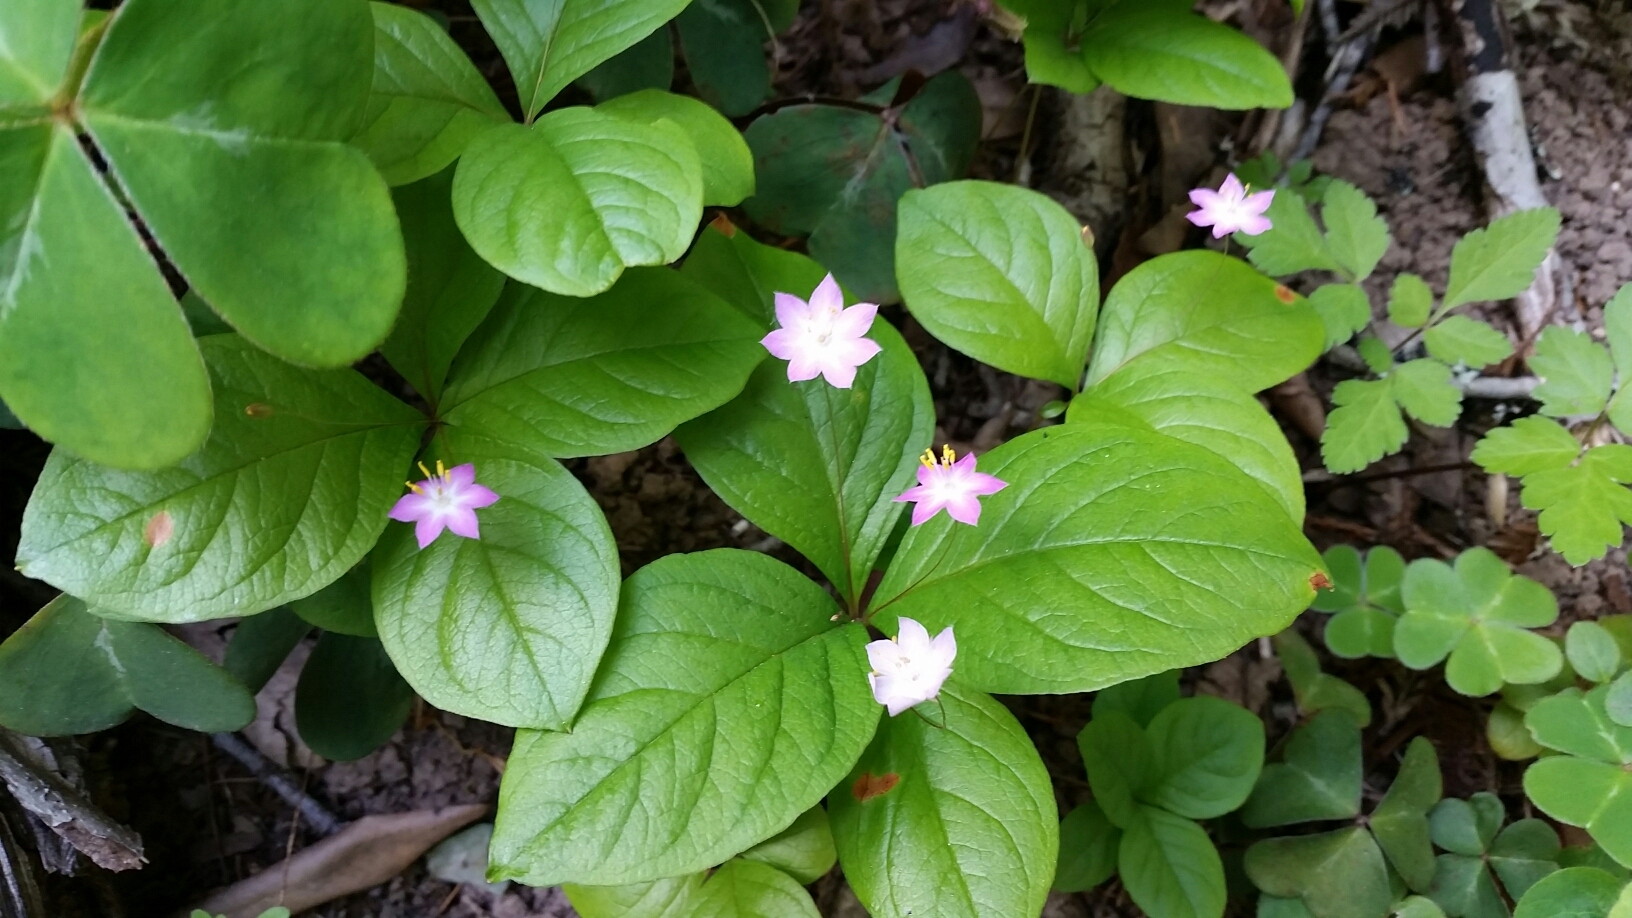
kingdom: Plantae
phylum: Tracheophyta
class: Magnoliopsida
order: Ericales
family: Primulaceae
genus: Lysimachia
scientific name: Lysimachia latifolia
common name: Pacific starflower
